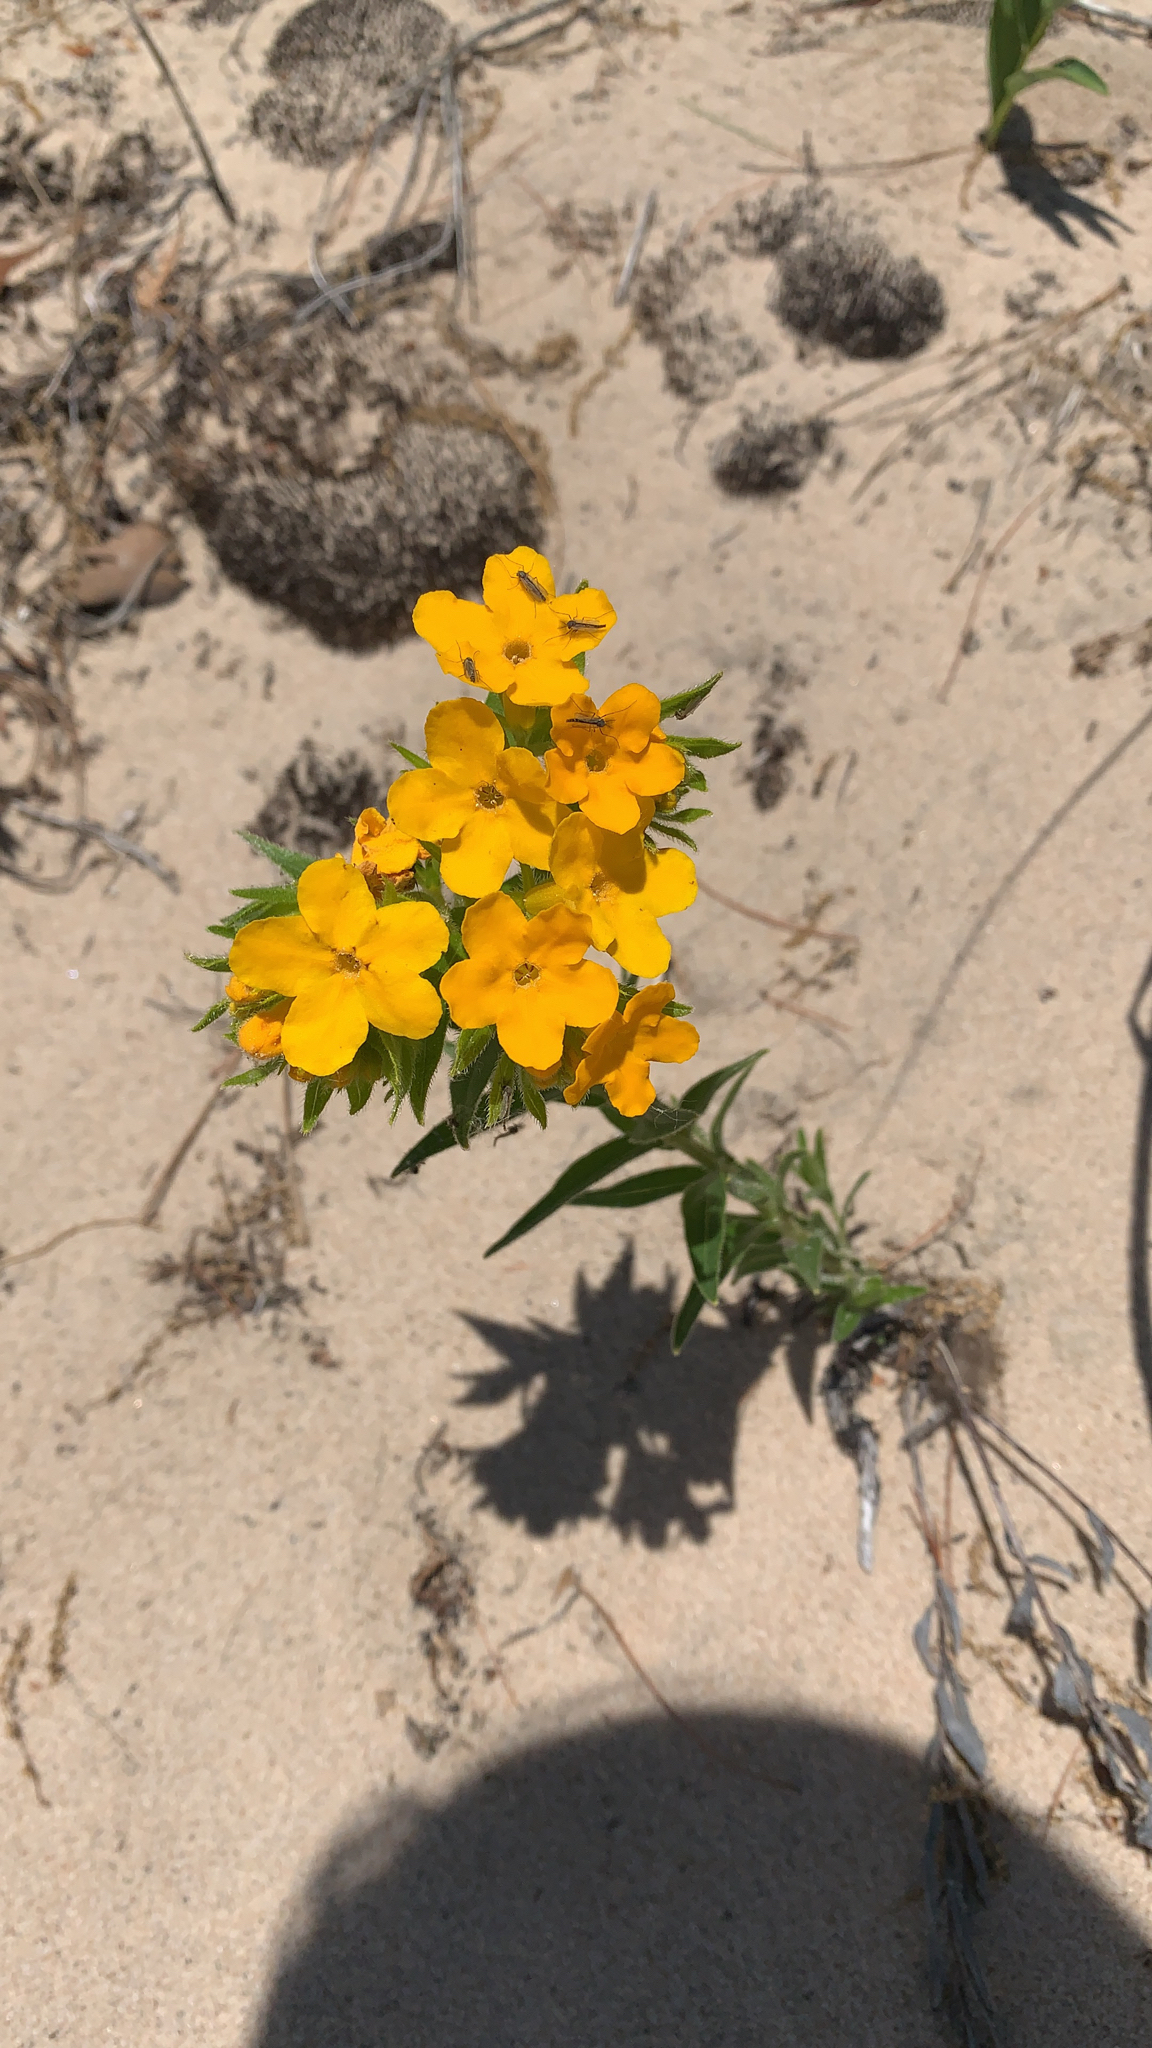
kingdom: Plantae
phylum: Tracheophyta
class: Magnoliopsida
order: Boraginales
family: Boraginaceae
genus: Lithospermum
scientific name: Lithospermum caroliniense
